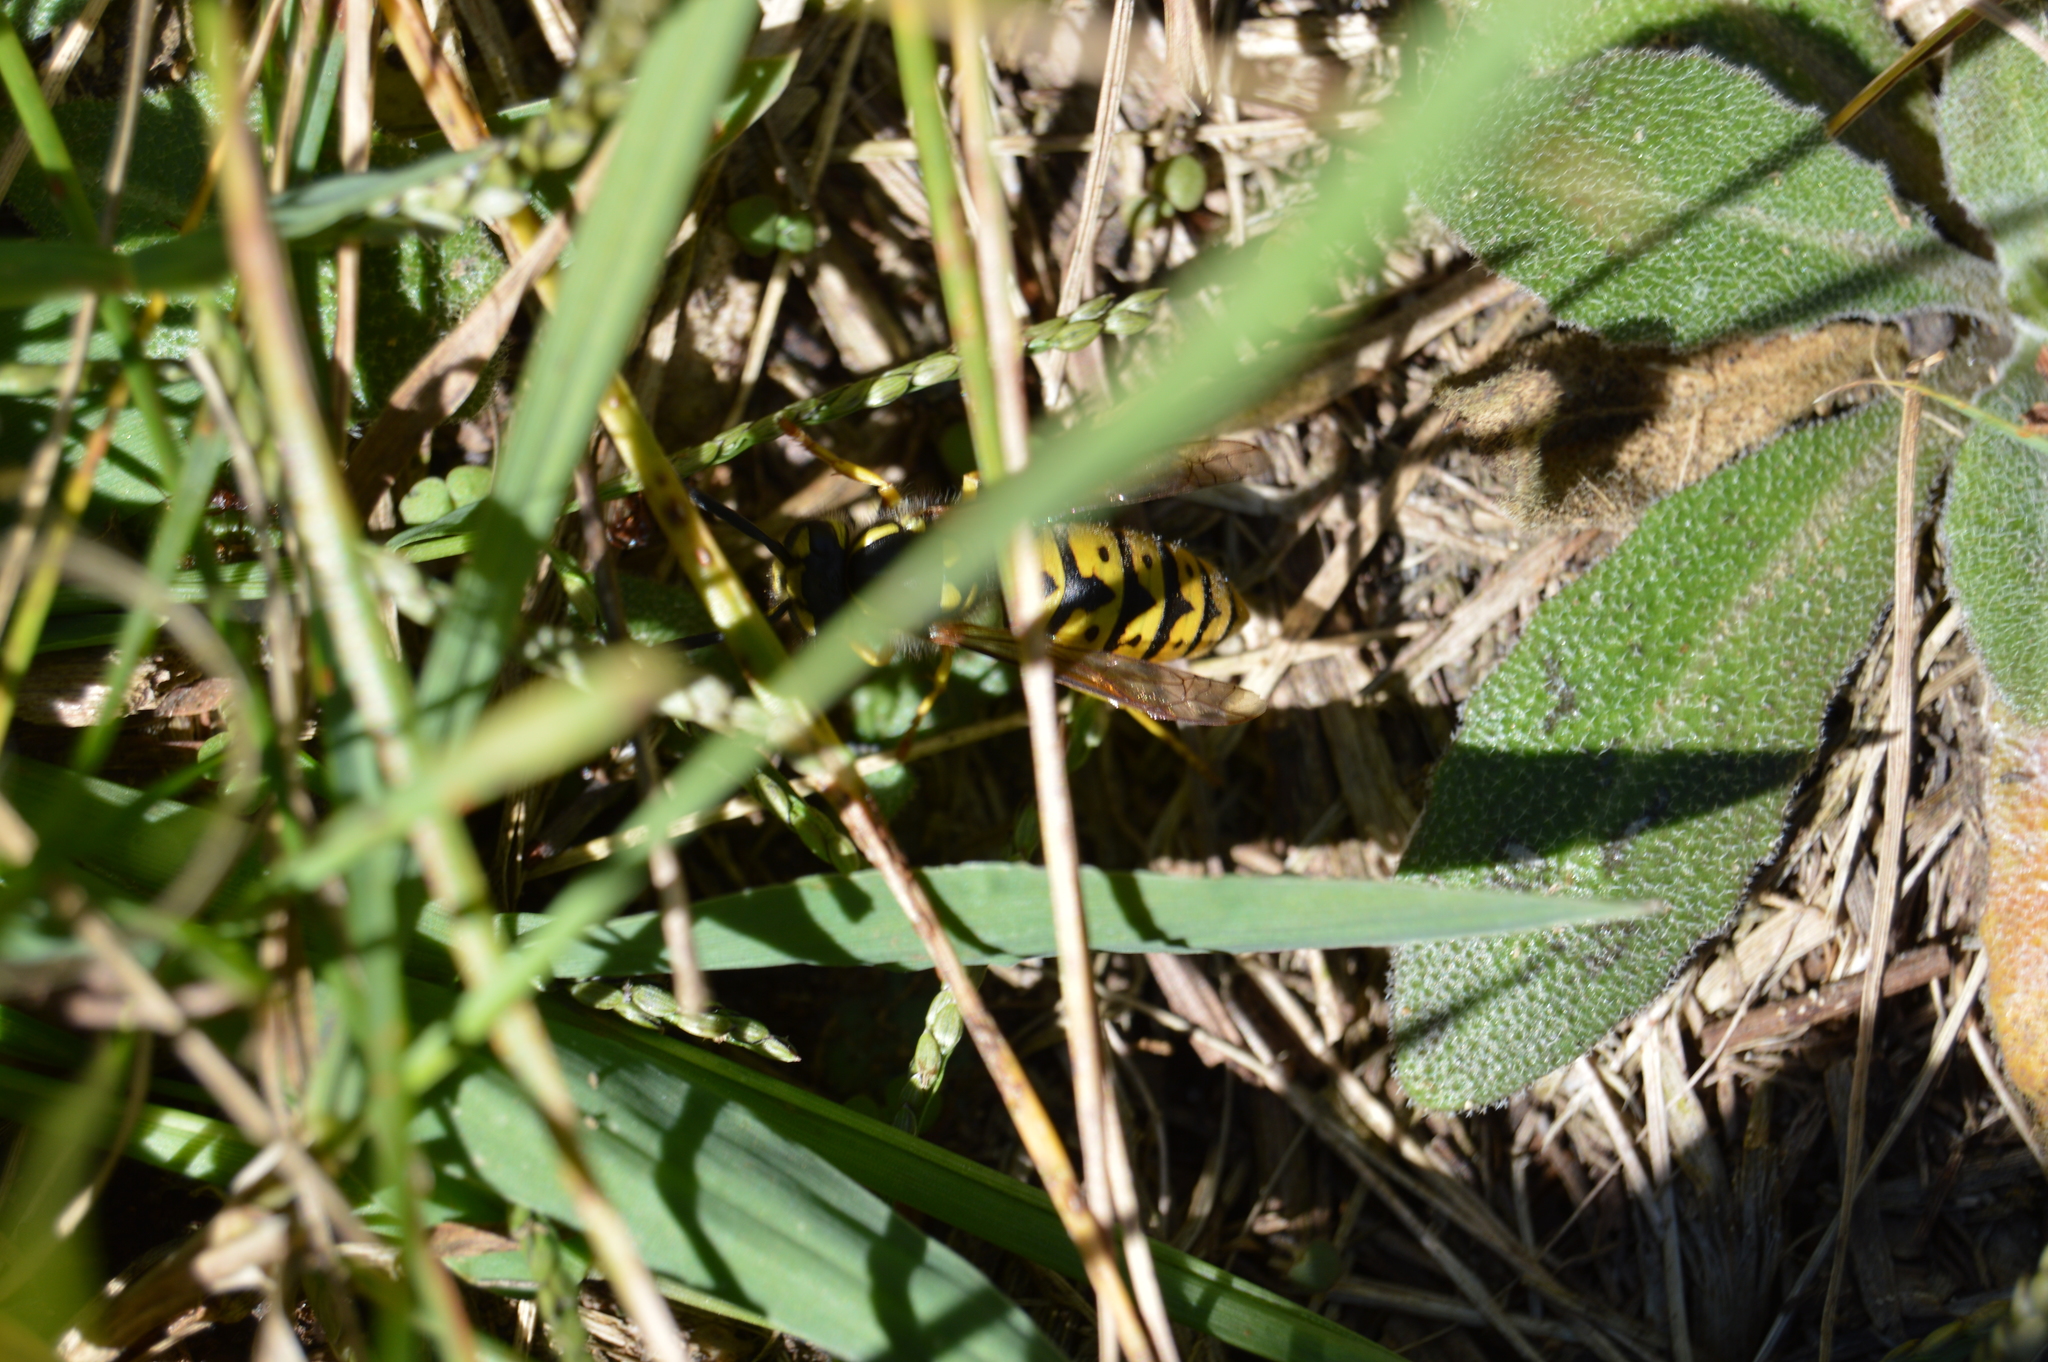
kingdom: Animalia
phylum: Arthropoda
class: Insecta
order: Hymenoptera
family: Vespidae
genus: Vespula
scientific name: Vespula germanica
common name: German wasp
